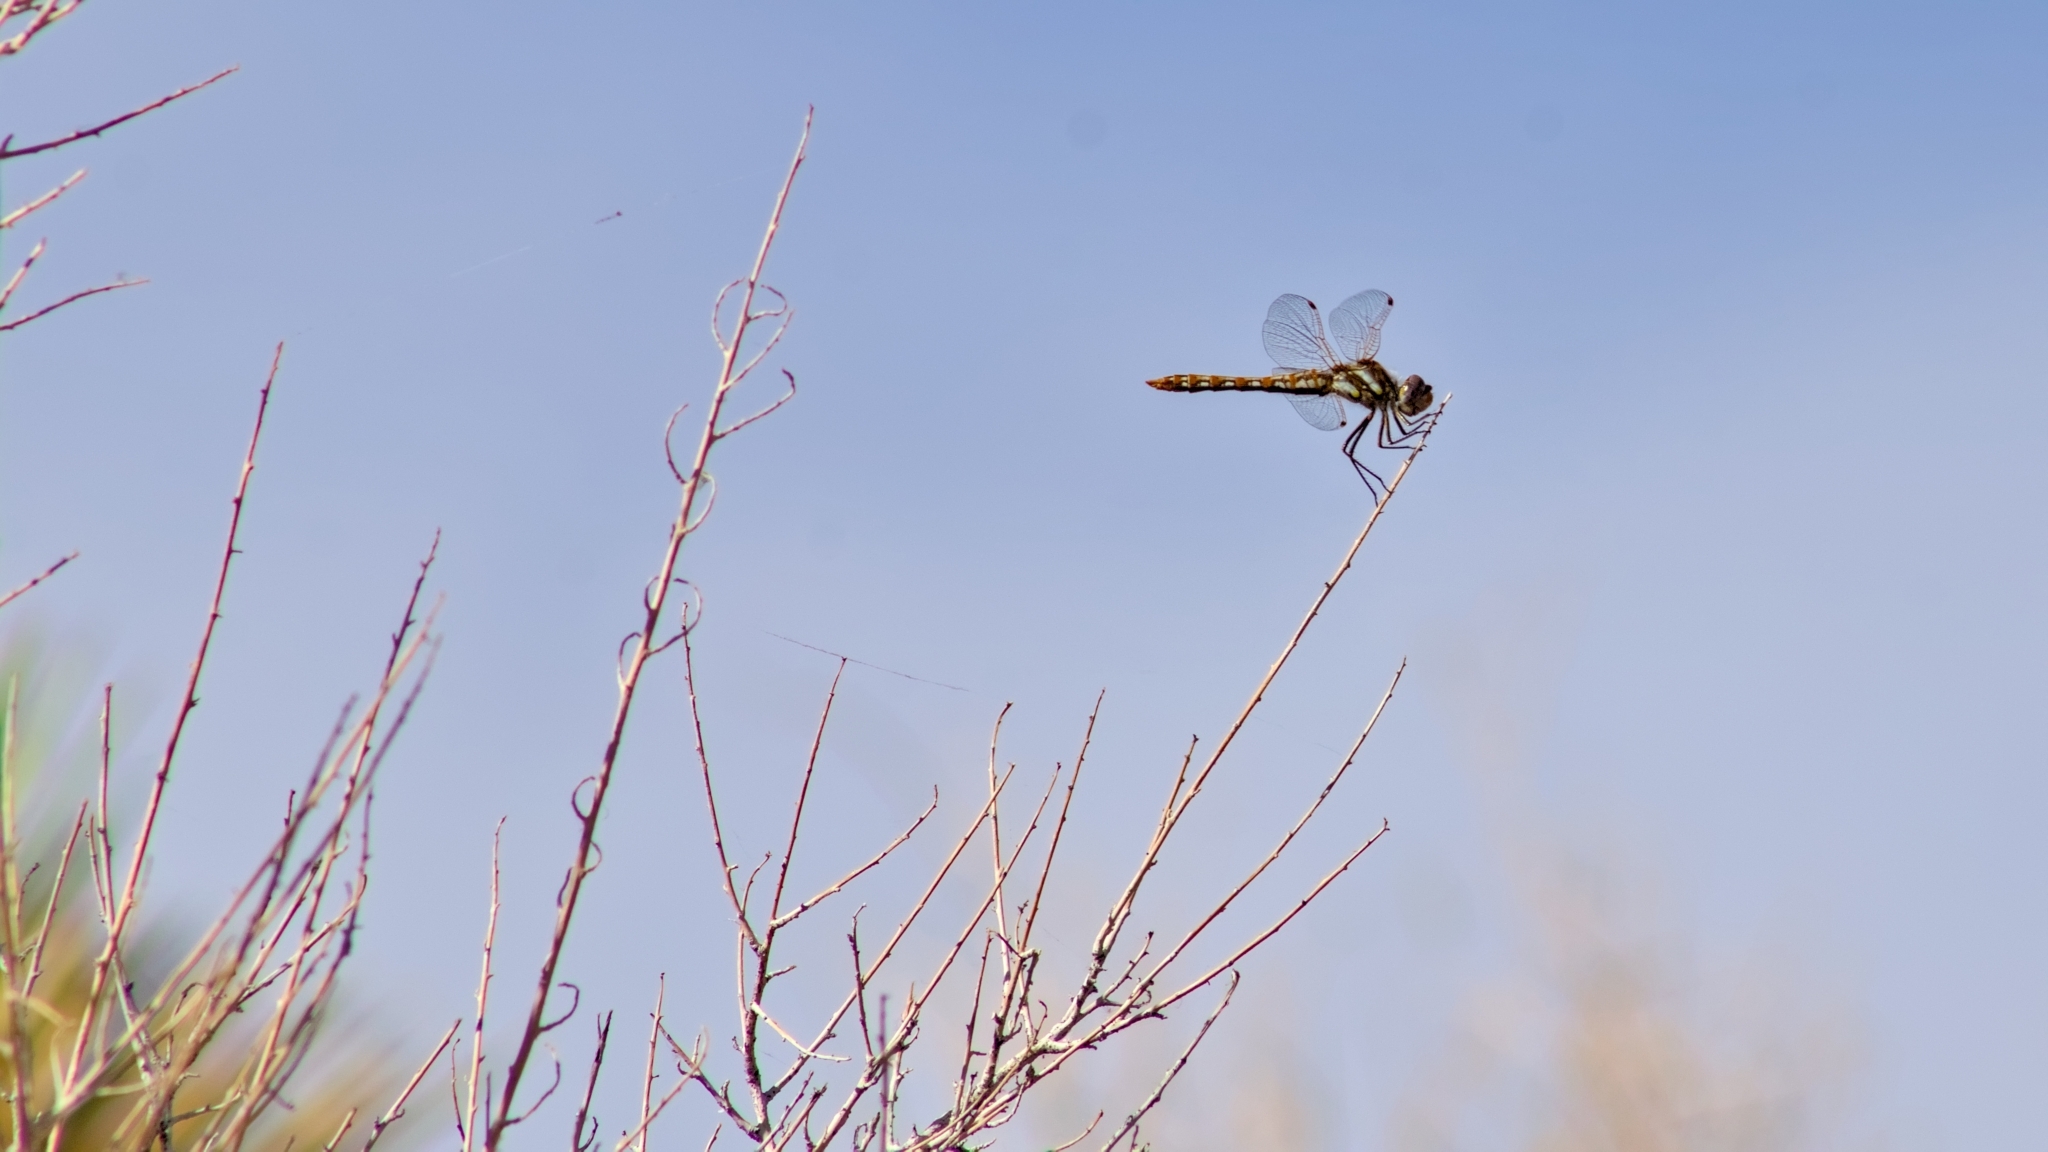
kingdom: Animalia
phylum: Arthropoda
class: Insecta
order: Odonata
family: Libellulidae
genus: Sympetrum
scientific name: Sympetrum corruptum
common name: Variegated meadowhawk
